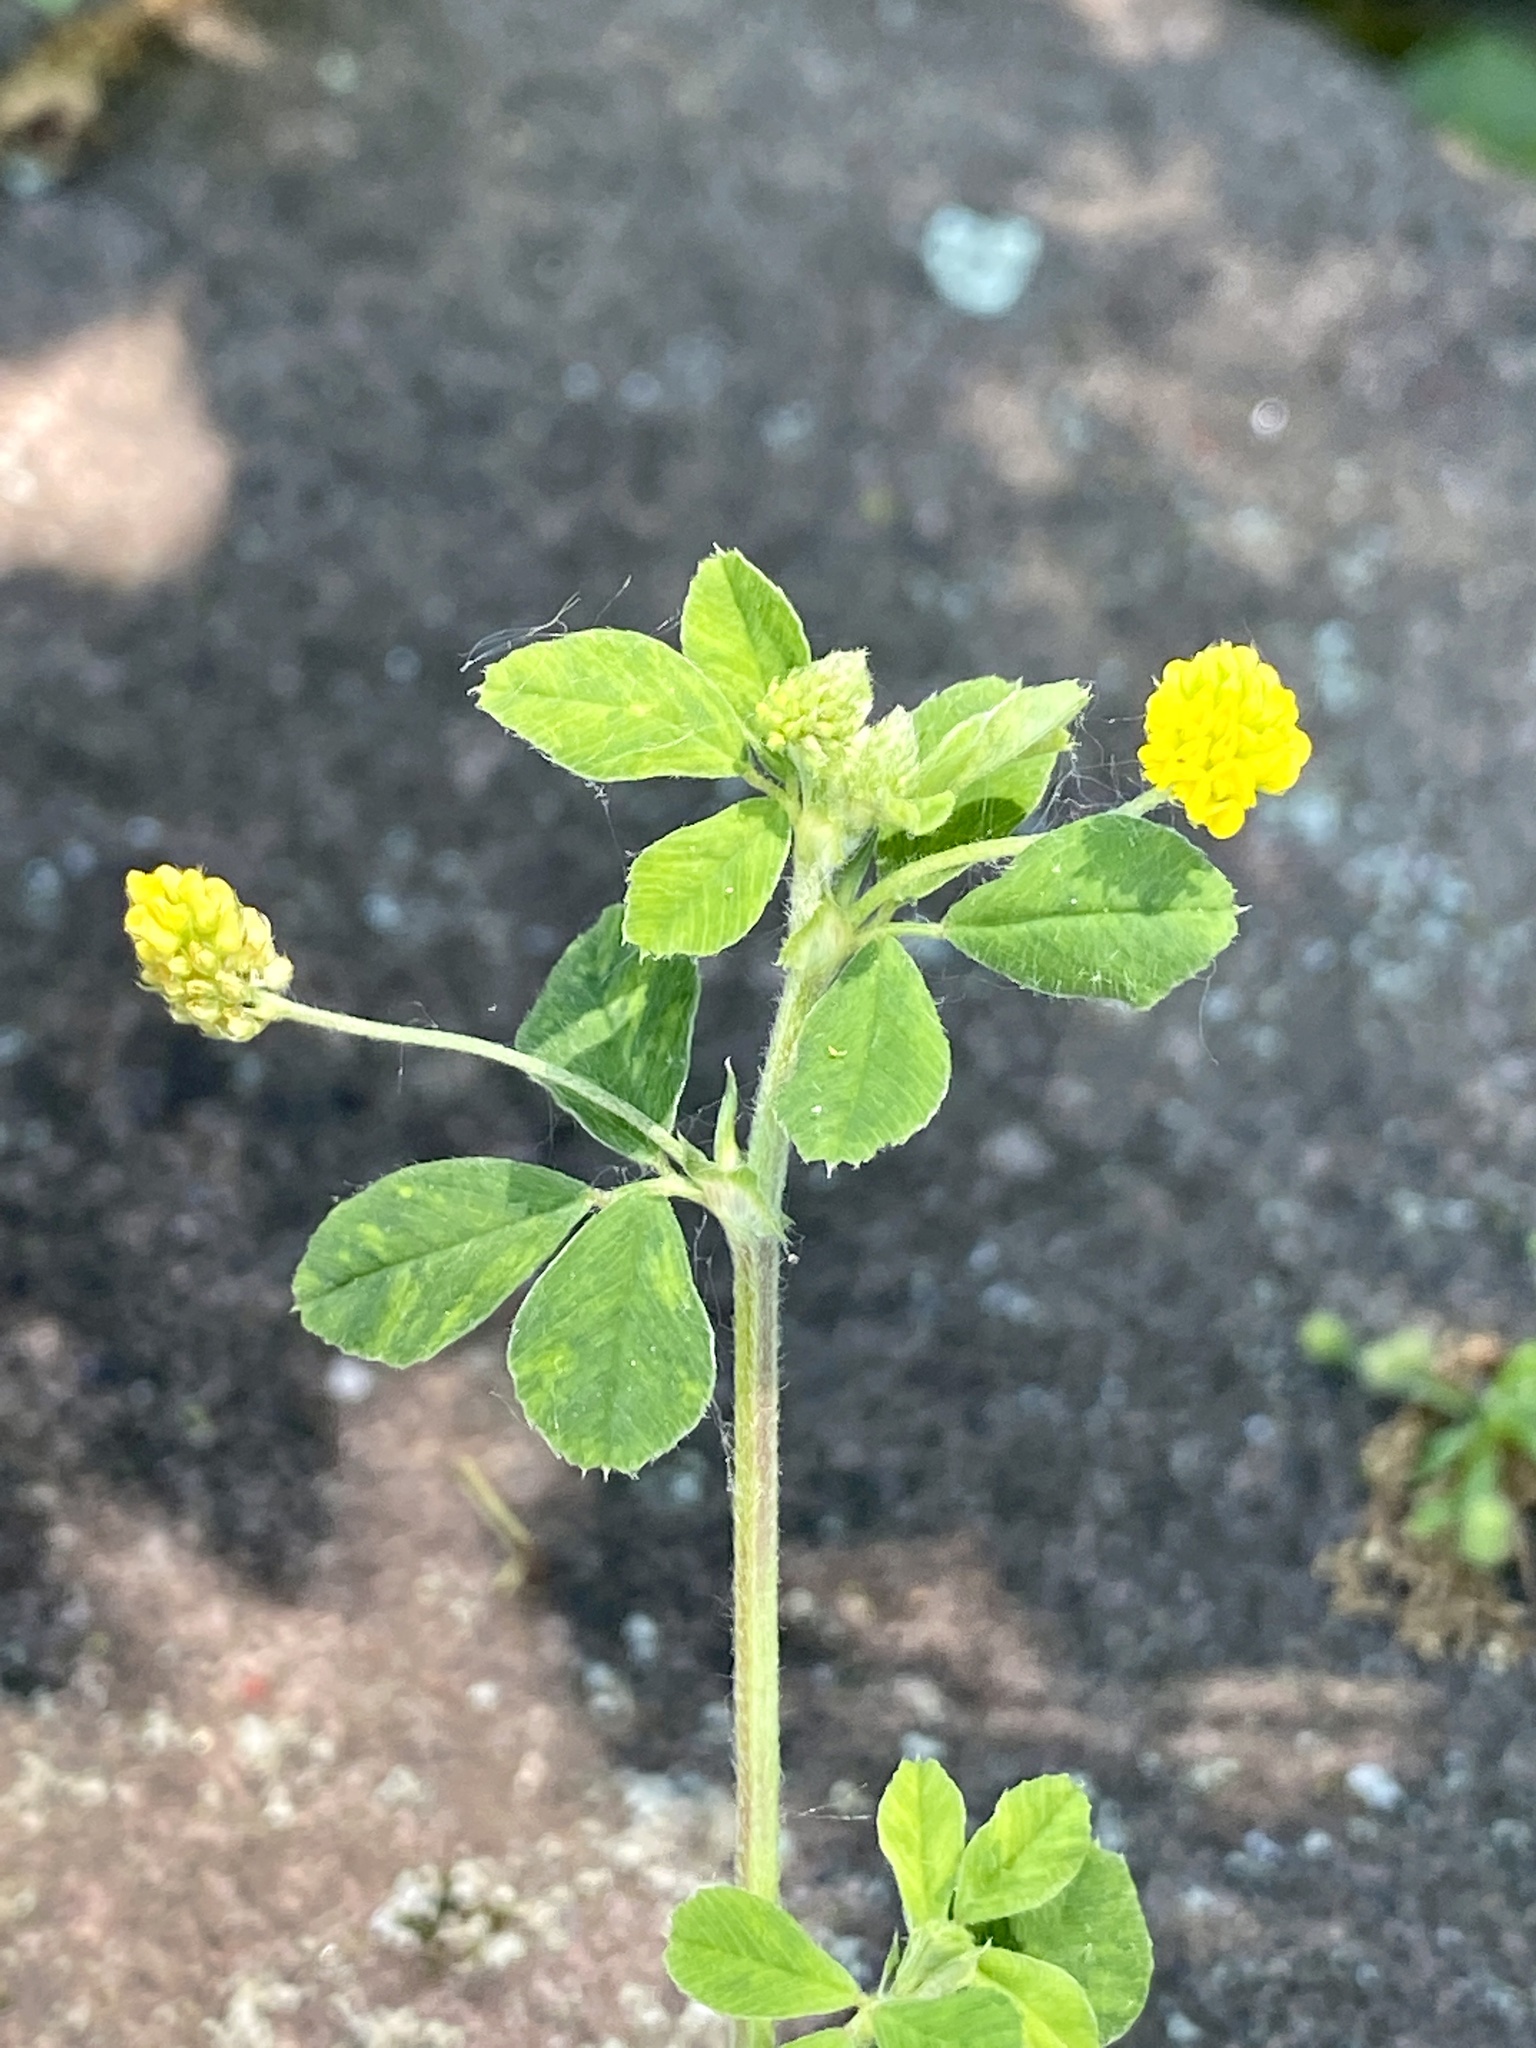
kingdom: Plantae
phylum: Tracheophyta
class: Magnoliopsida
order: Fabales
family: Fabaceae
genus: Medicago
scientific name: Medicago lupulina
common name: Black medick
